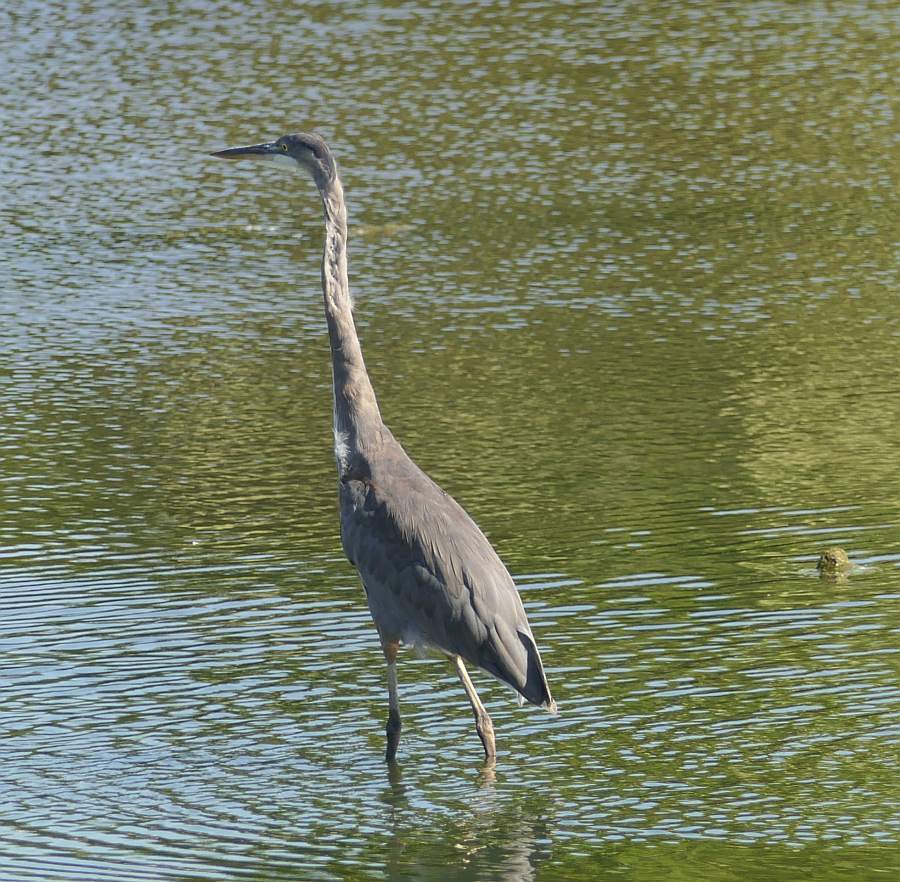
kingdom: Animalia
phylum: Chordata
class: Aves
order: Pelecaniformes
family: Ardeidae
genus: Ardea
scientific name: Ardea herodias
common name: Great blue heron
